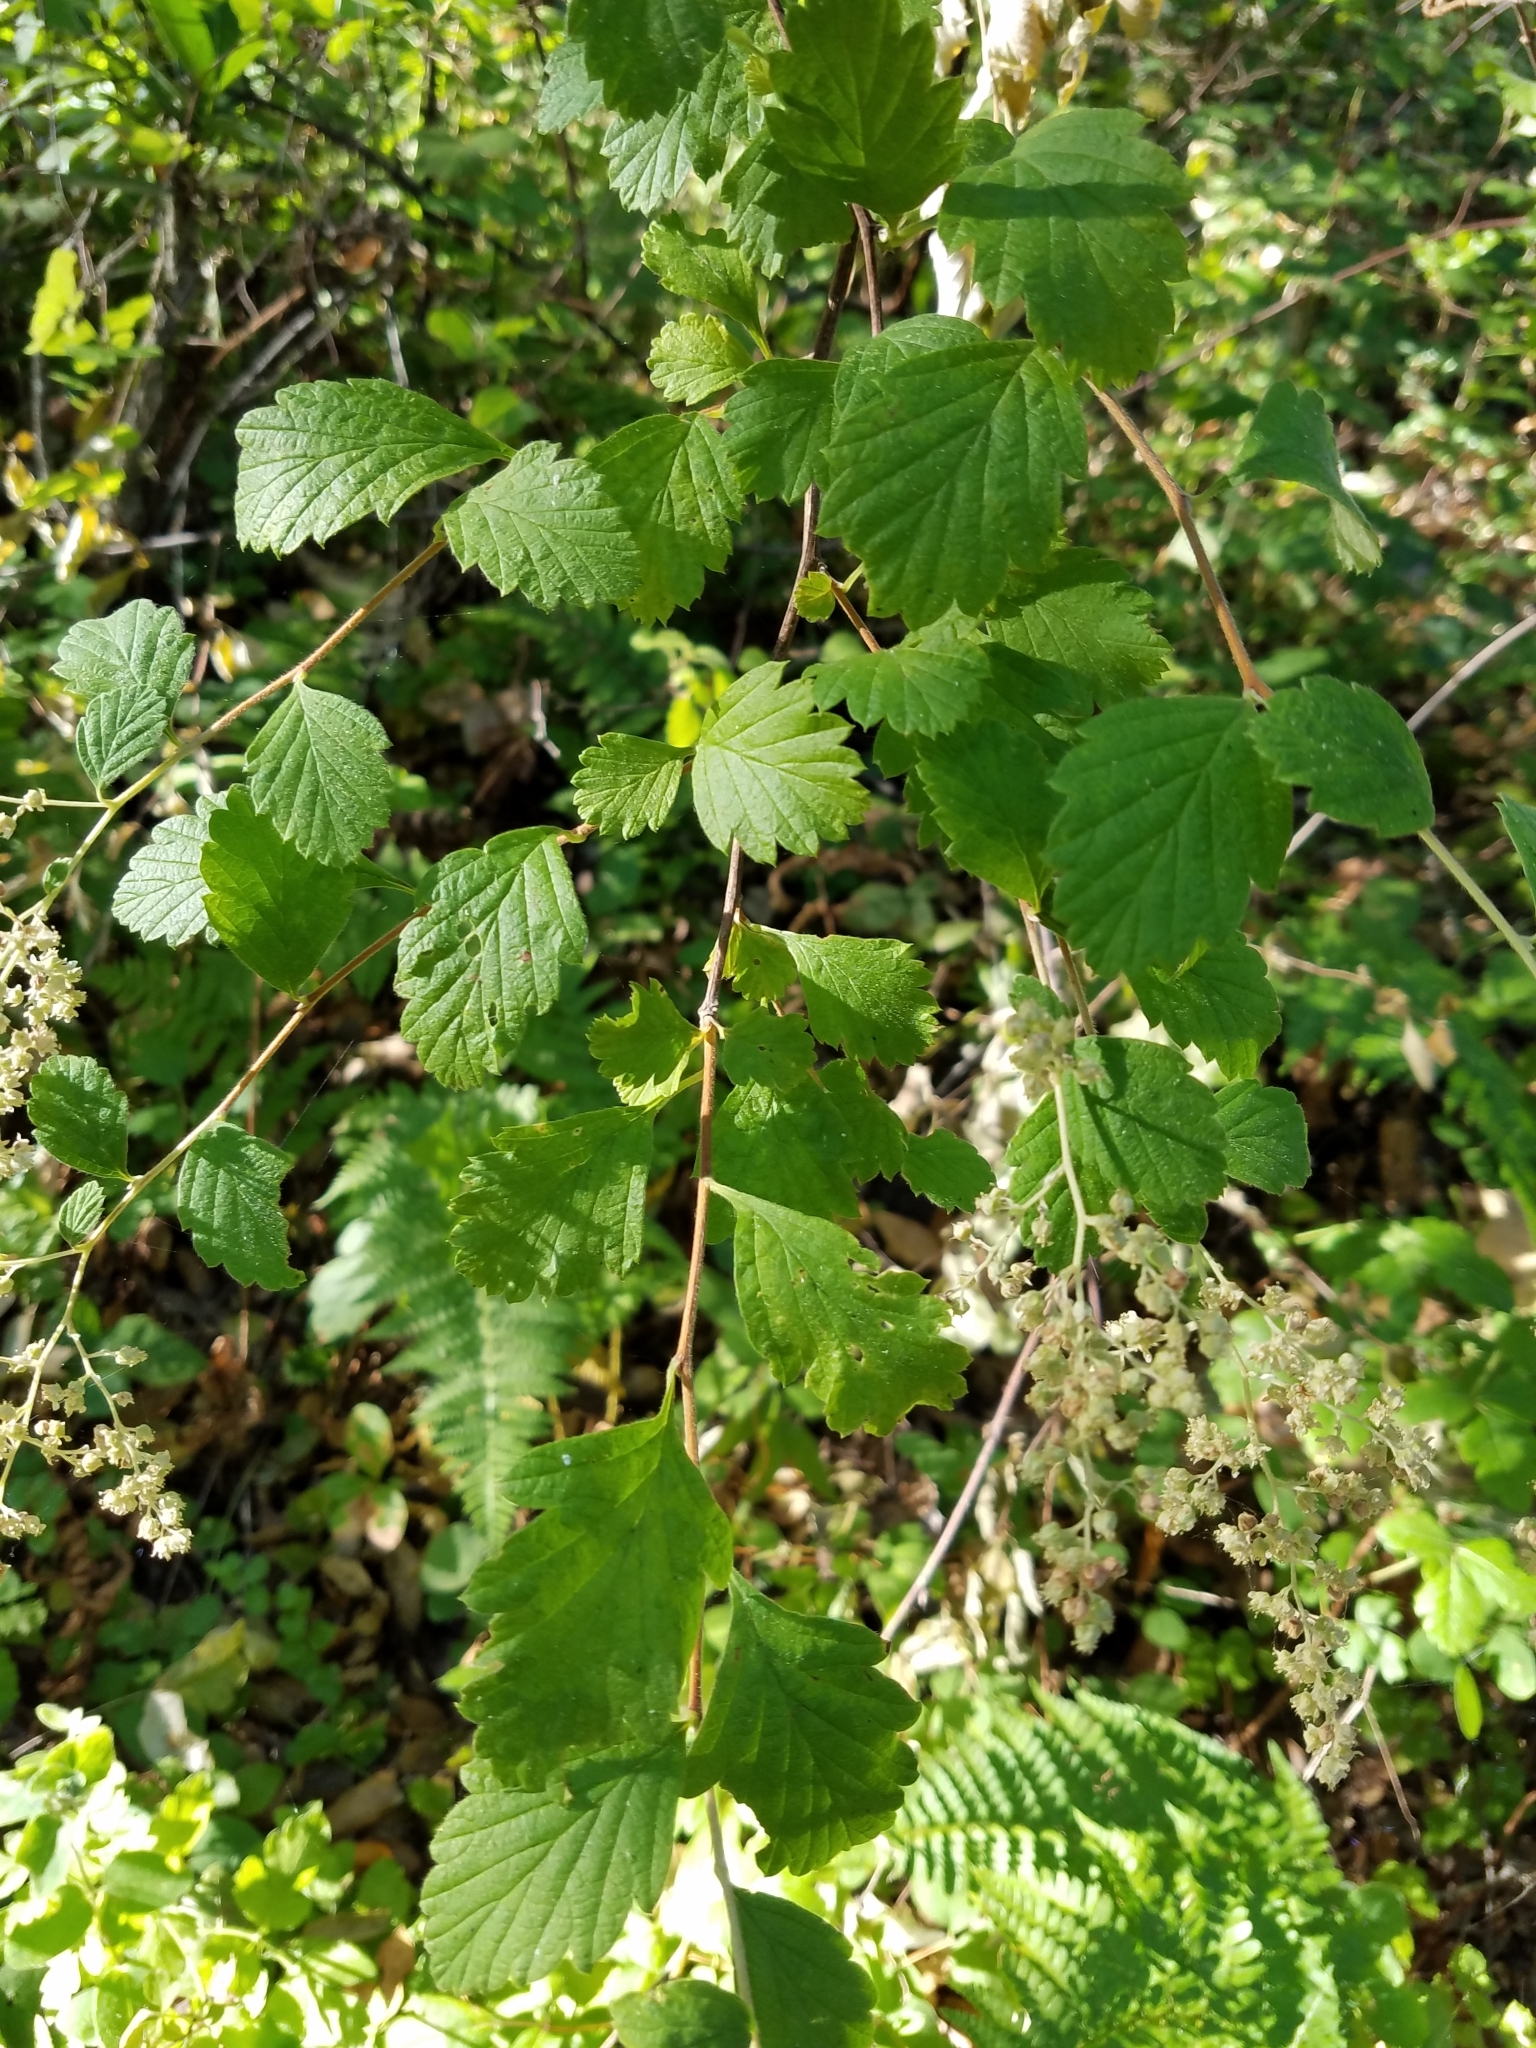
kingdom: Plantae
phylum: Tracheophyta
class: Magnoliopsida
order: Rosales
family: Rosaceae
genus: Holodiscus
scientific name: Holodiscus discolor
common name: Oceanspray
